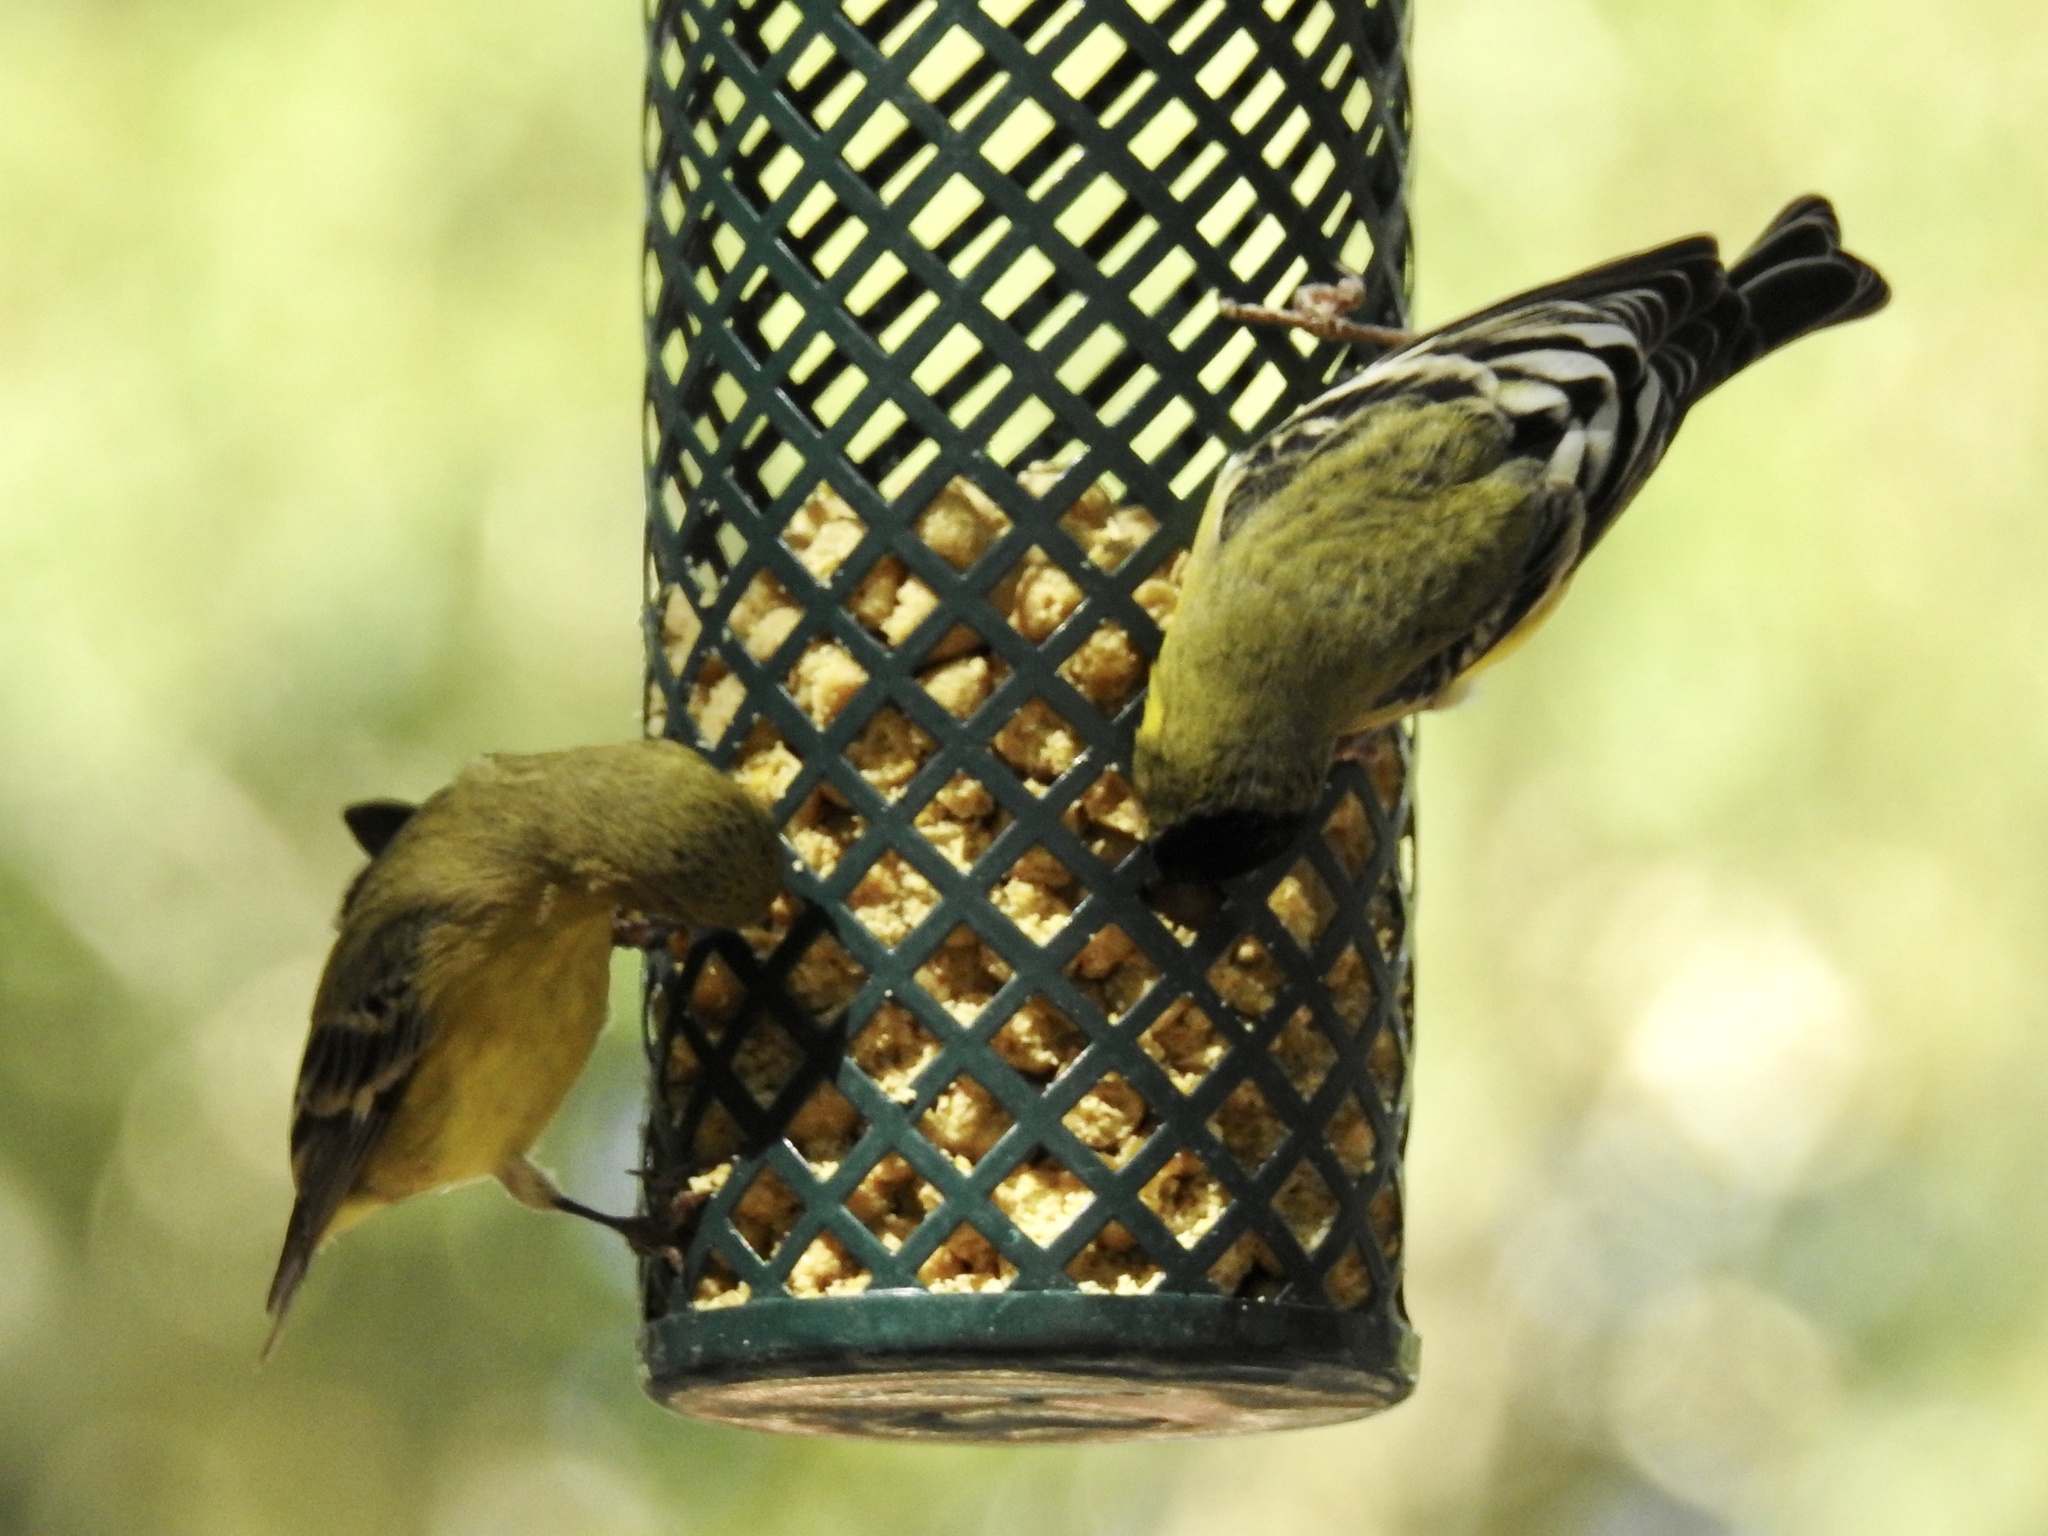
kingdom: Animalia
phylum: Chordata
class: Aves
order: Passeriformes
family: Fringillidae
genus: Spinus
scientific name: Spinus psaltria
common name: Lesser goldfinch
